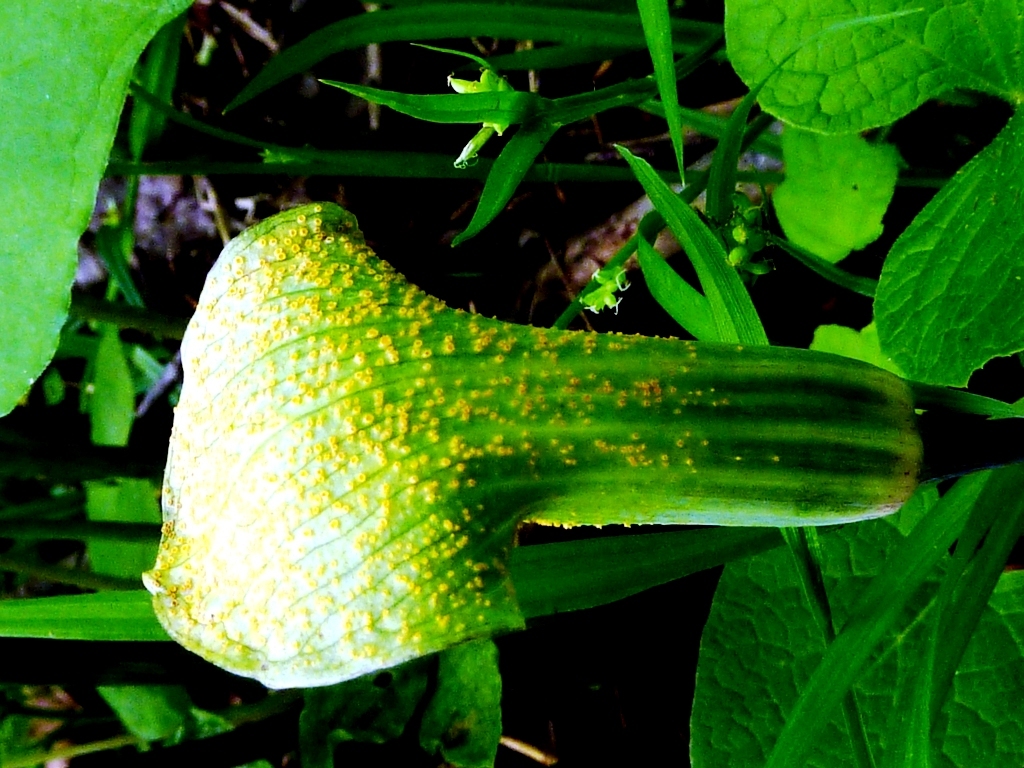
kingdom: Fungi
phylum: Basidiomycota
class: Pucciniomycetes
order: Pucciniales
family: Pucciniaceae
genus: Uromyces
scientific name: Uromyces ari-triphylli
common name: Jack-in-the-pulpit rust
